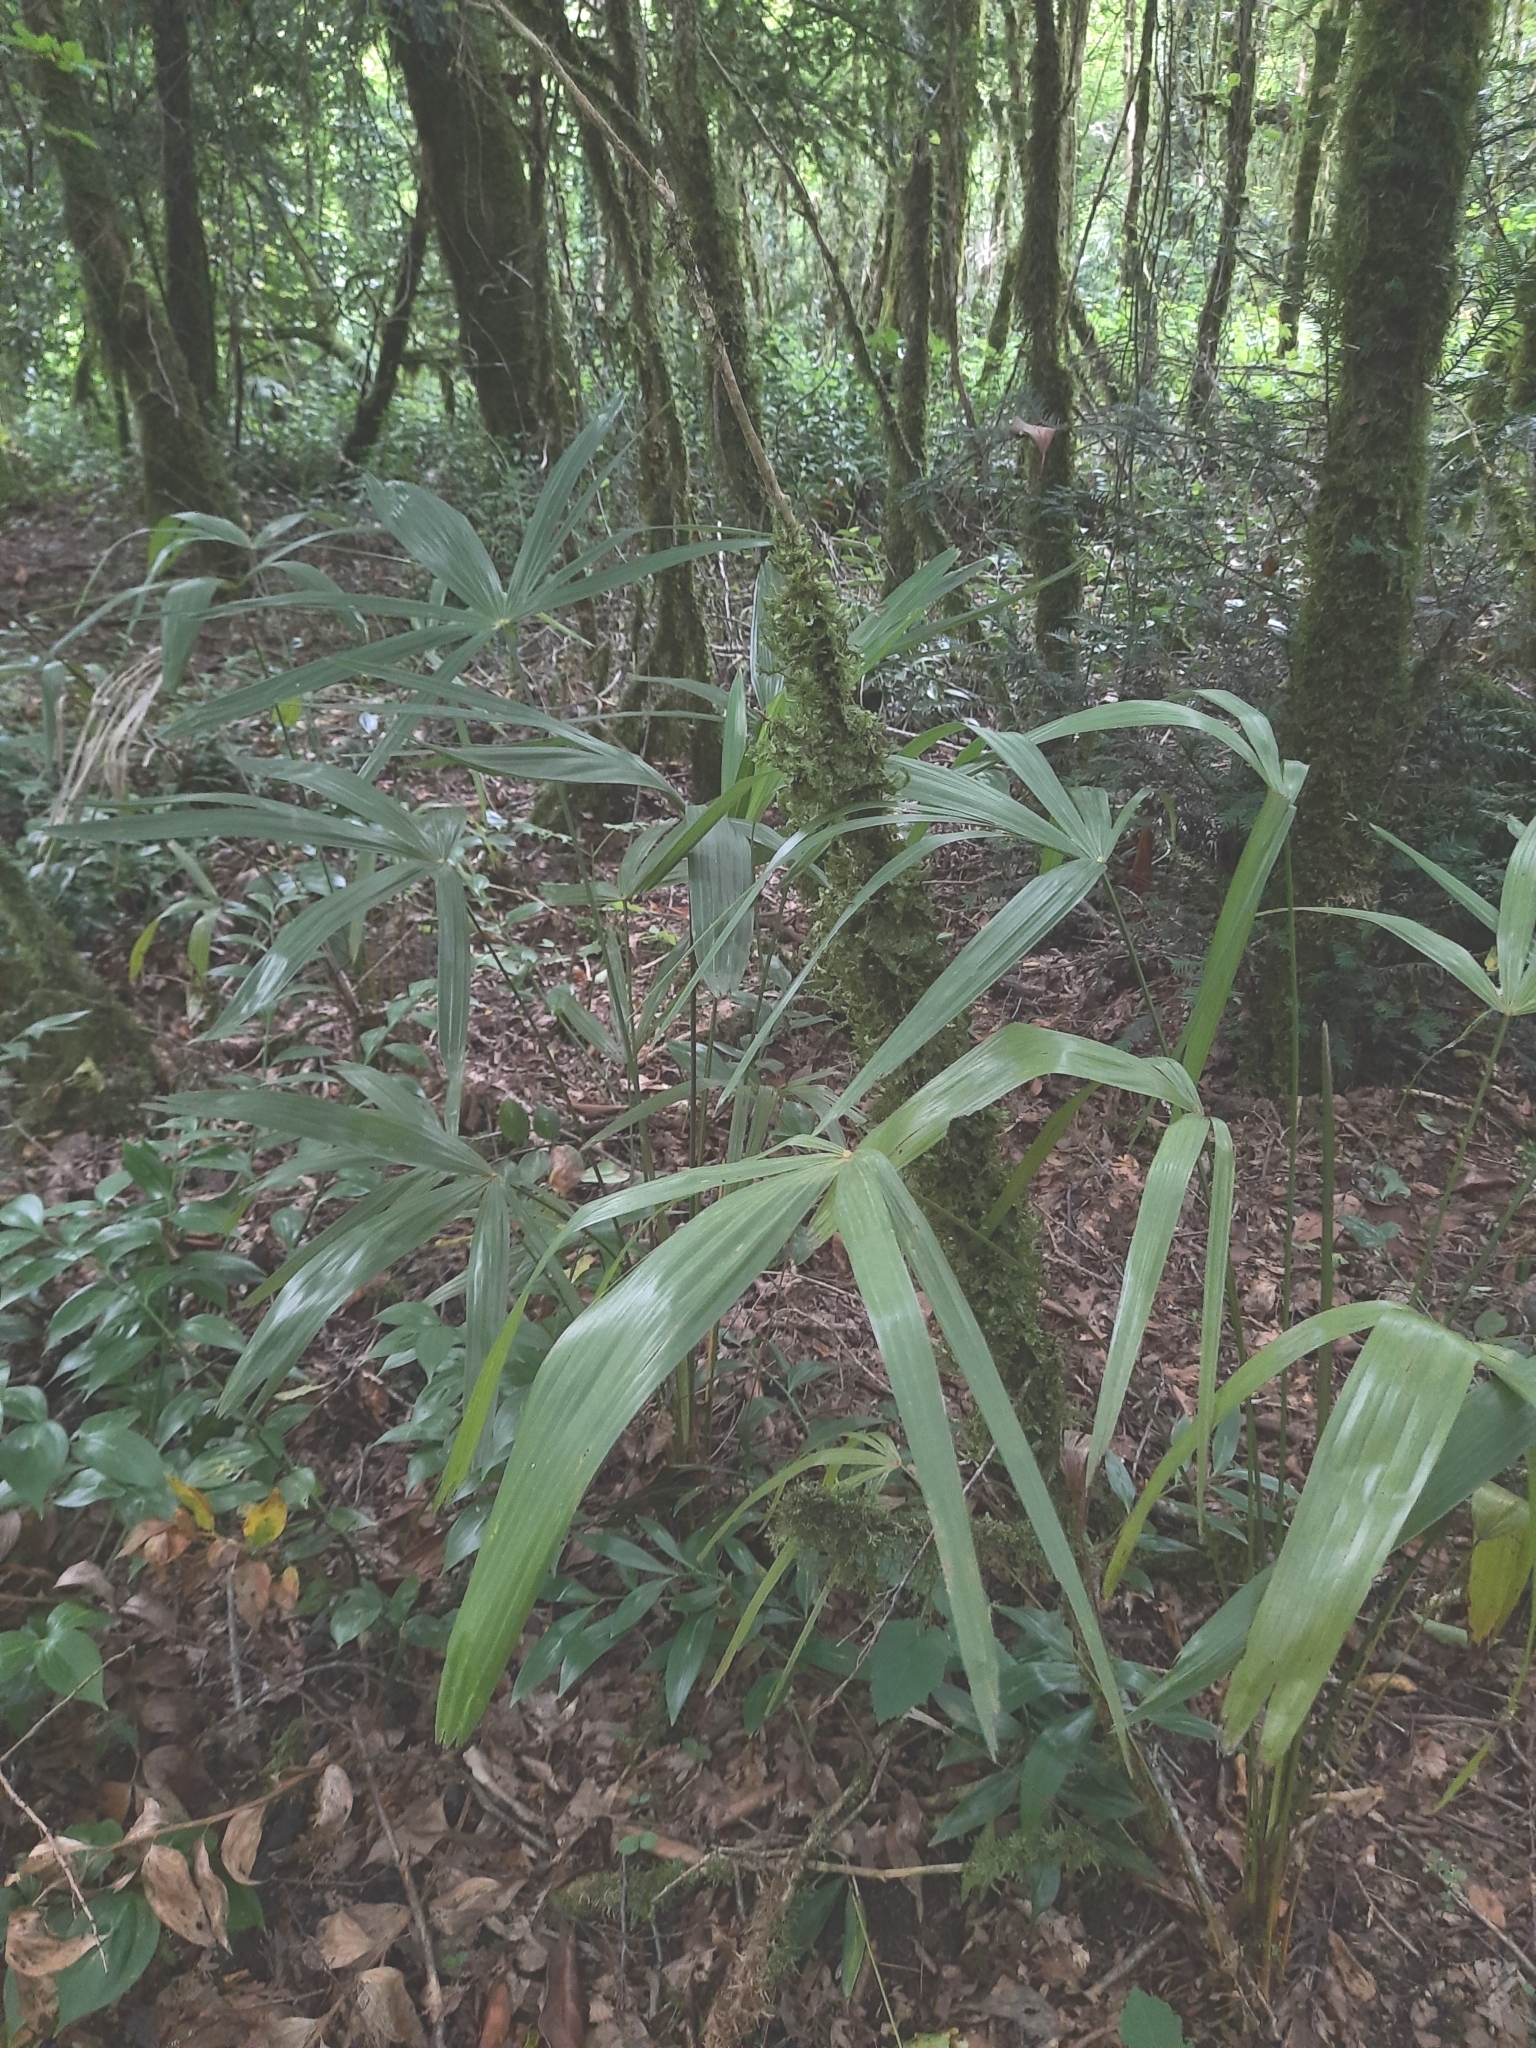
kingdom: Plantae
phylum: Tracheophyta
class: Liliopsida
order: Arecales
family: Arecaceae
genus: Trachycarpus
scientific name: Trachycarpus fortunei
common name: Chusan palm
